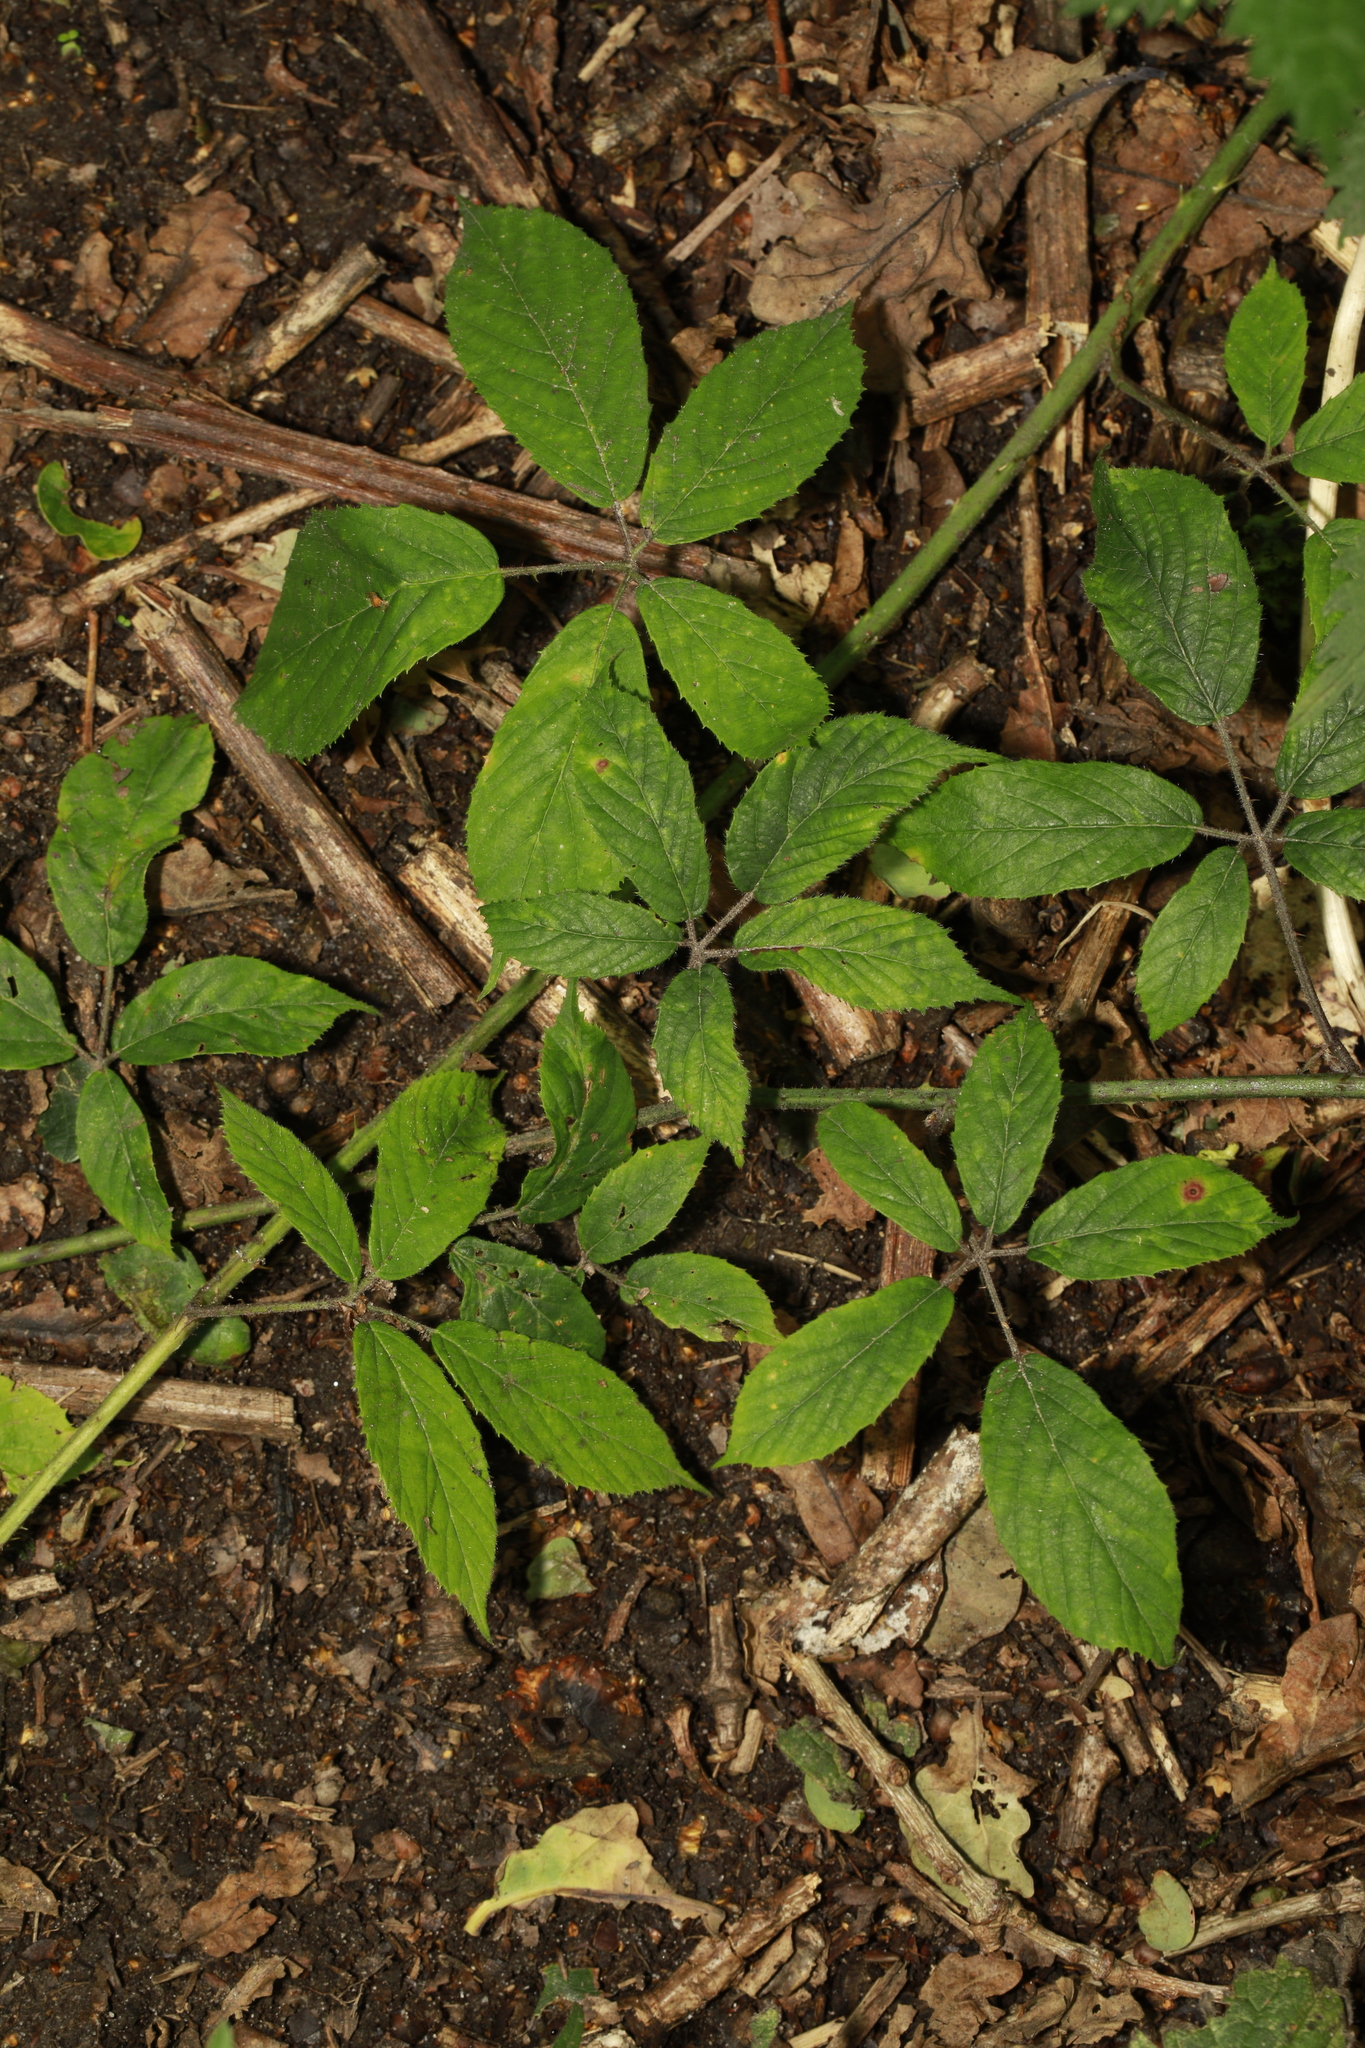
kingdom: Plantae
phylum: Tracheophyta
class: Magnoliopsida
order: Rosales
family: Rosaceae
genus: Rubus
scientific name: Rubus rufescens
